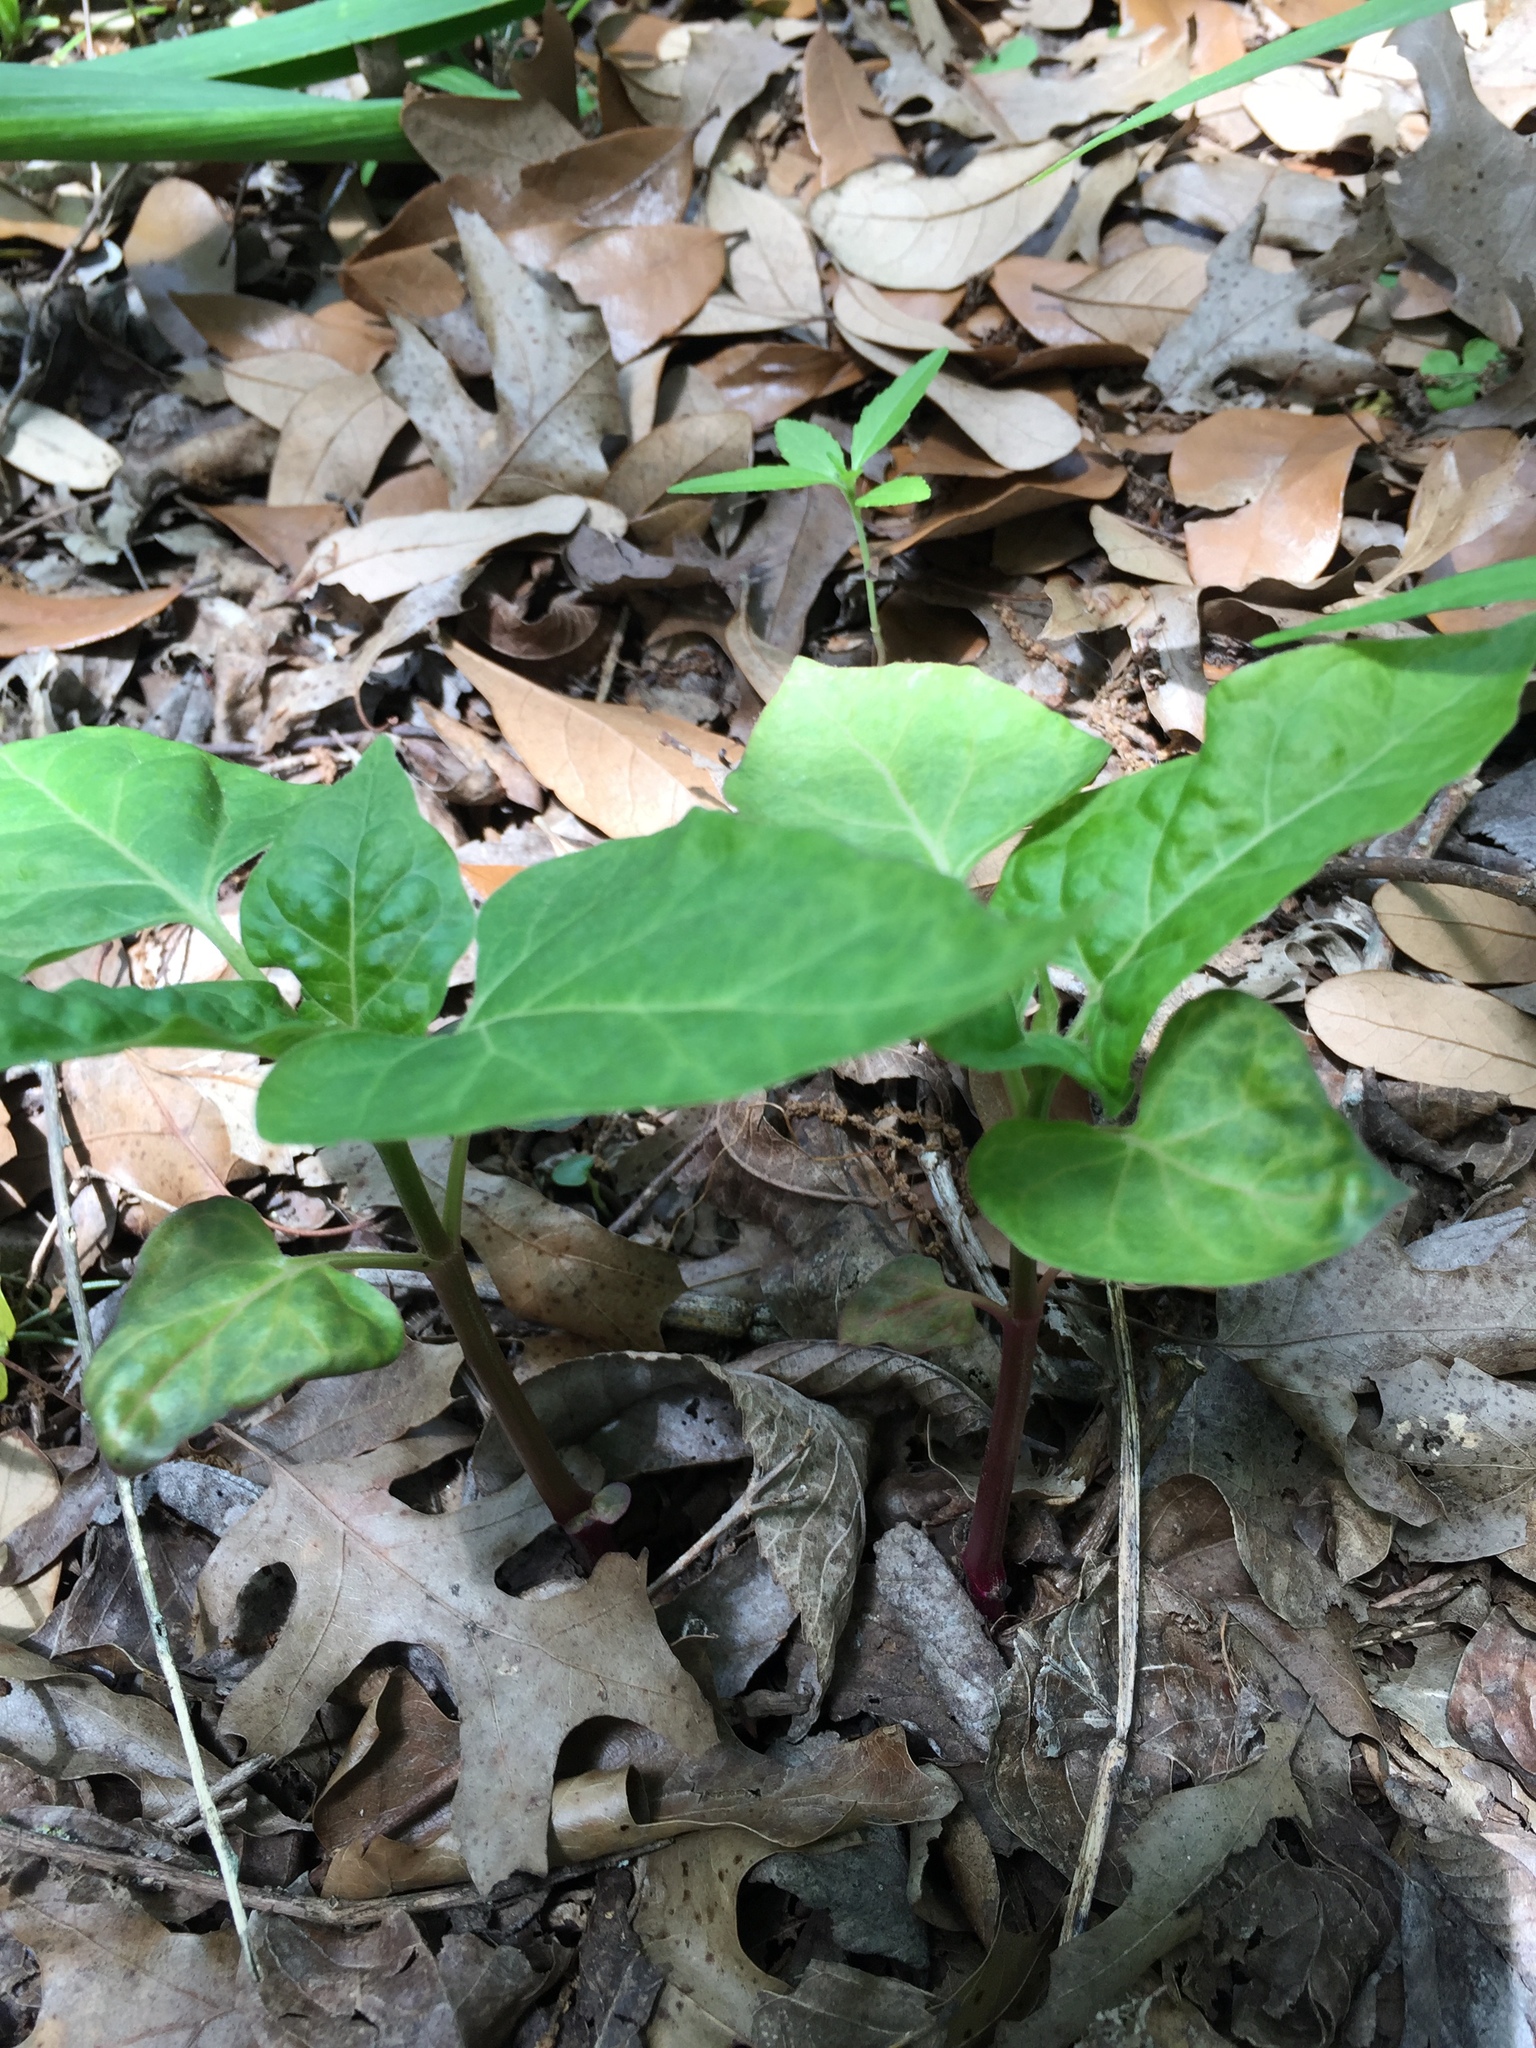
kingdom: Plantae
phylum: Tracheophyta
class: Magnoliopsida
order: Caryophyllales
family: Nyctaginaceae
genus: Mirabilis
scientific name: Mirabilis jalapa
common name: Marvel-of-peru
